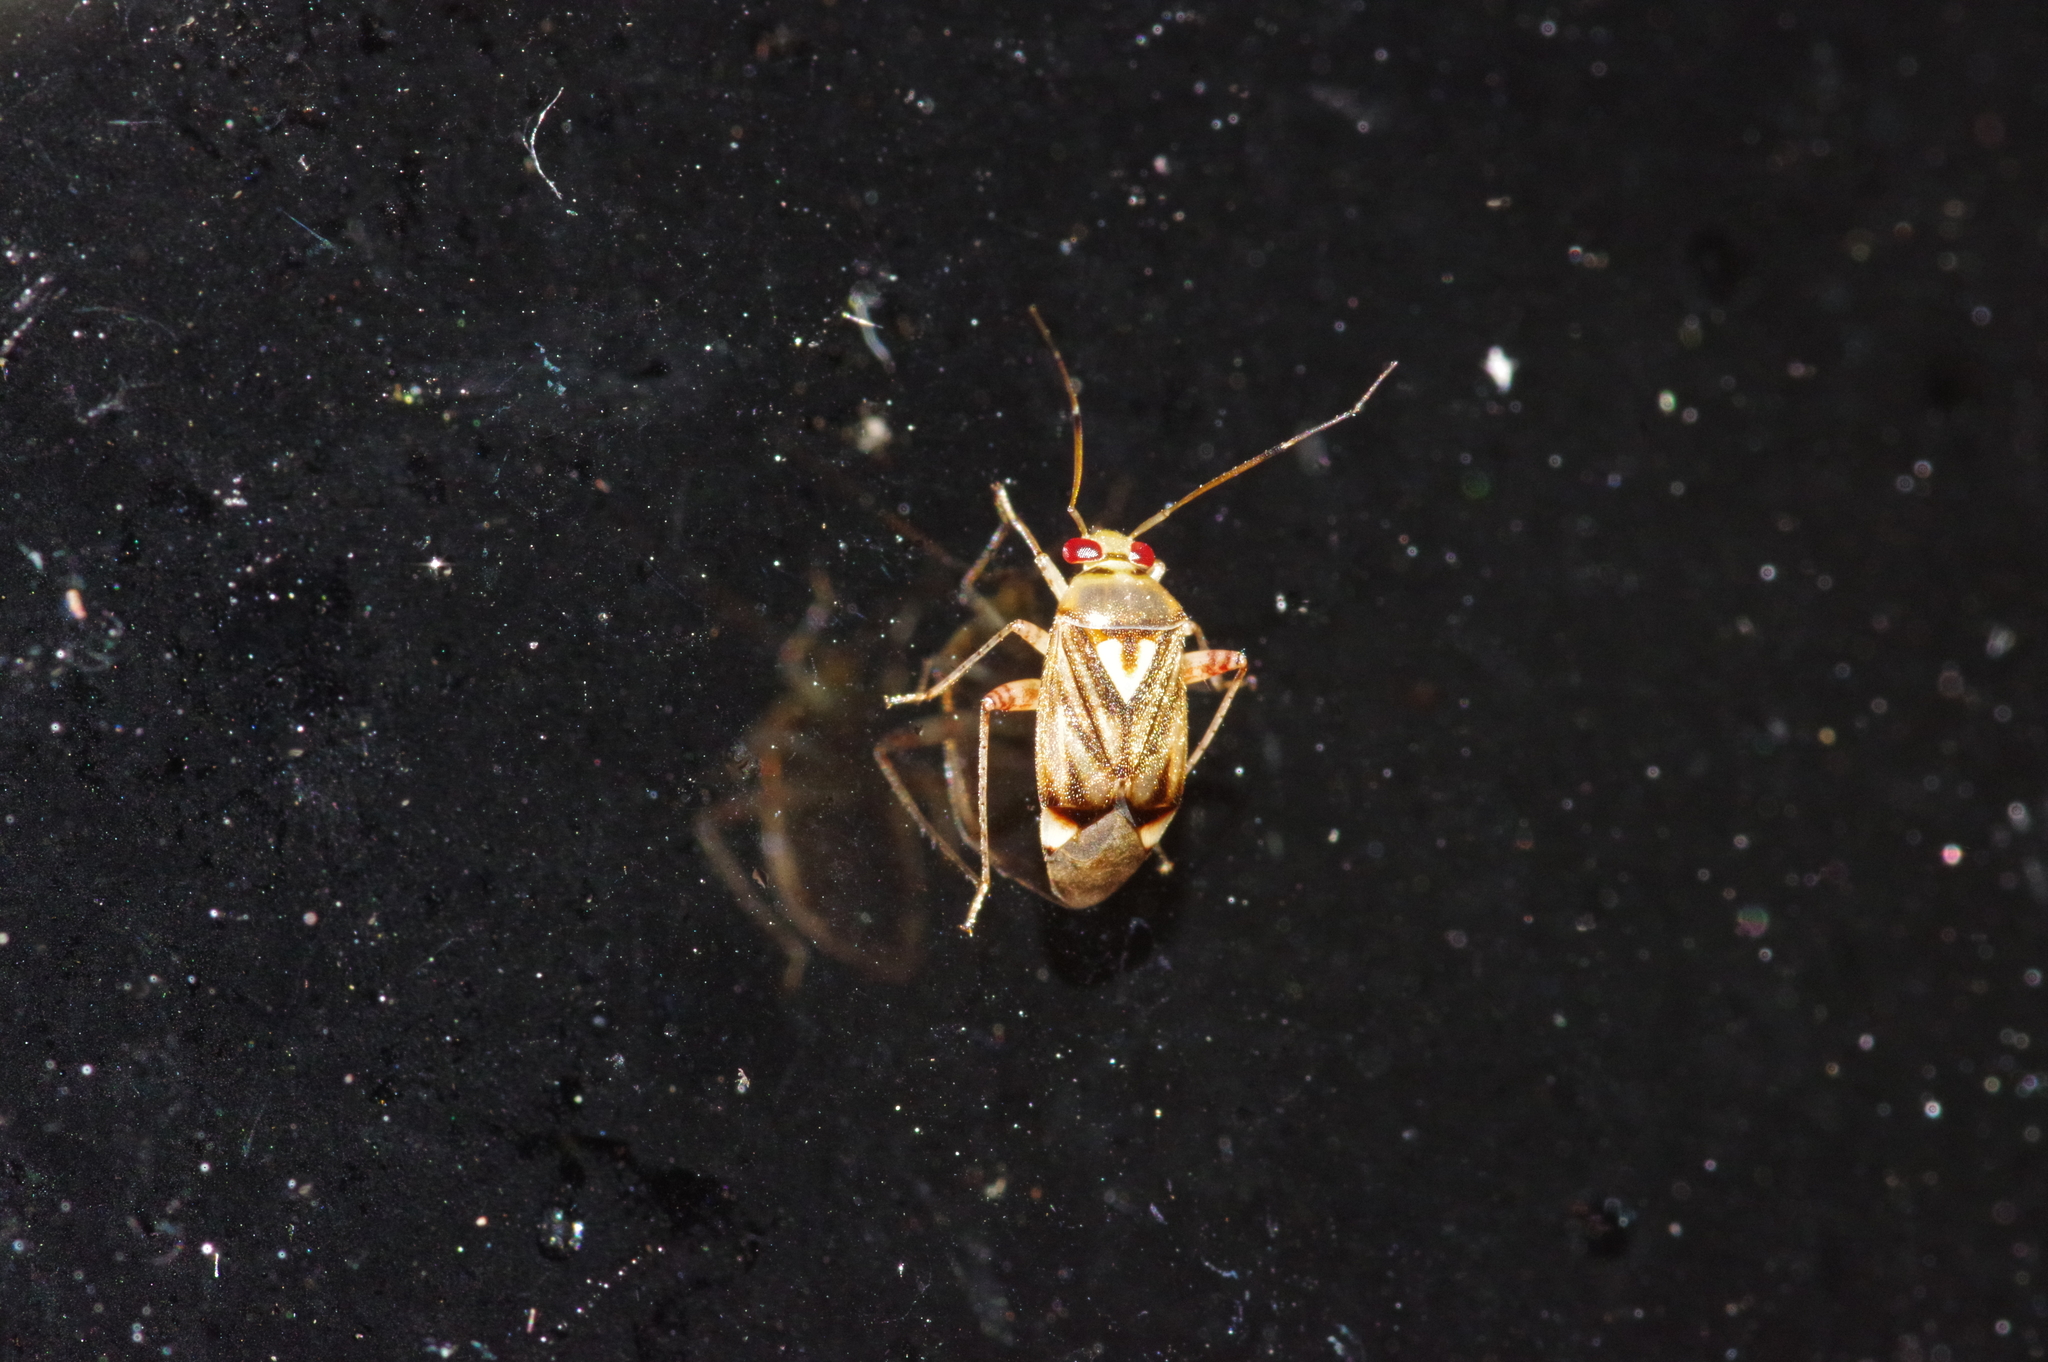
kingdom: Animalia
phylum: Arthropoda
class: Insecta
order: Hemiptera
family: Miridae
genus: Apolygus
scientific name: Apolygus insulicola
